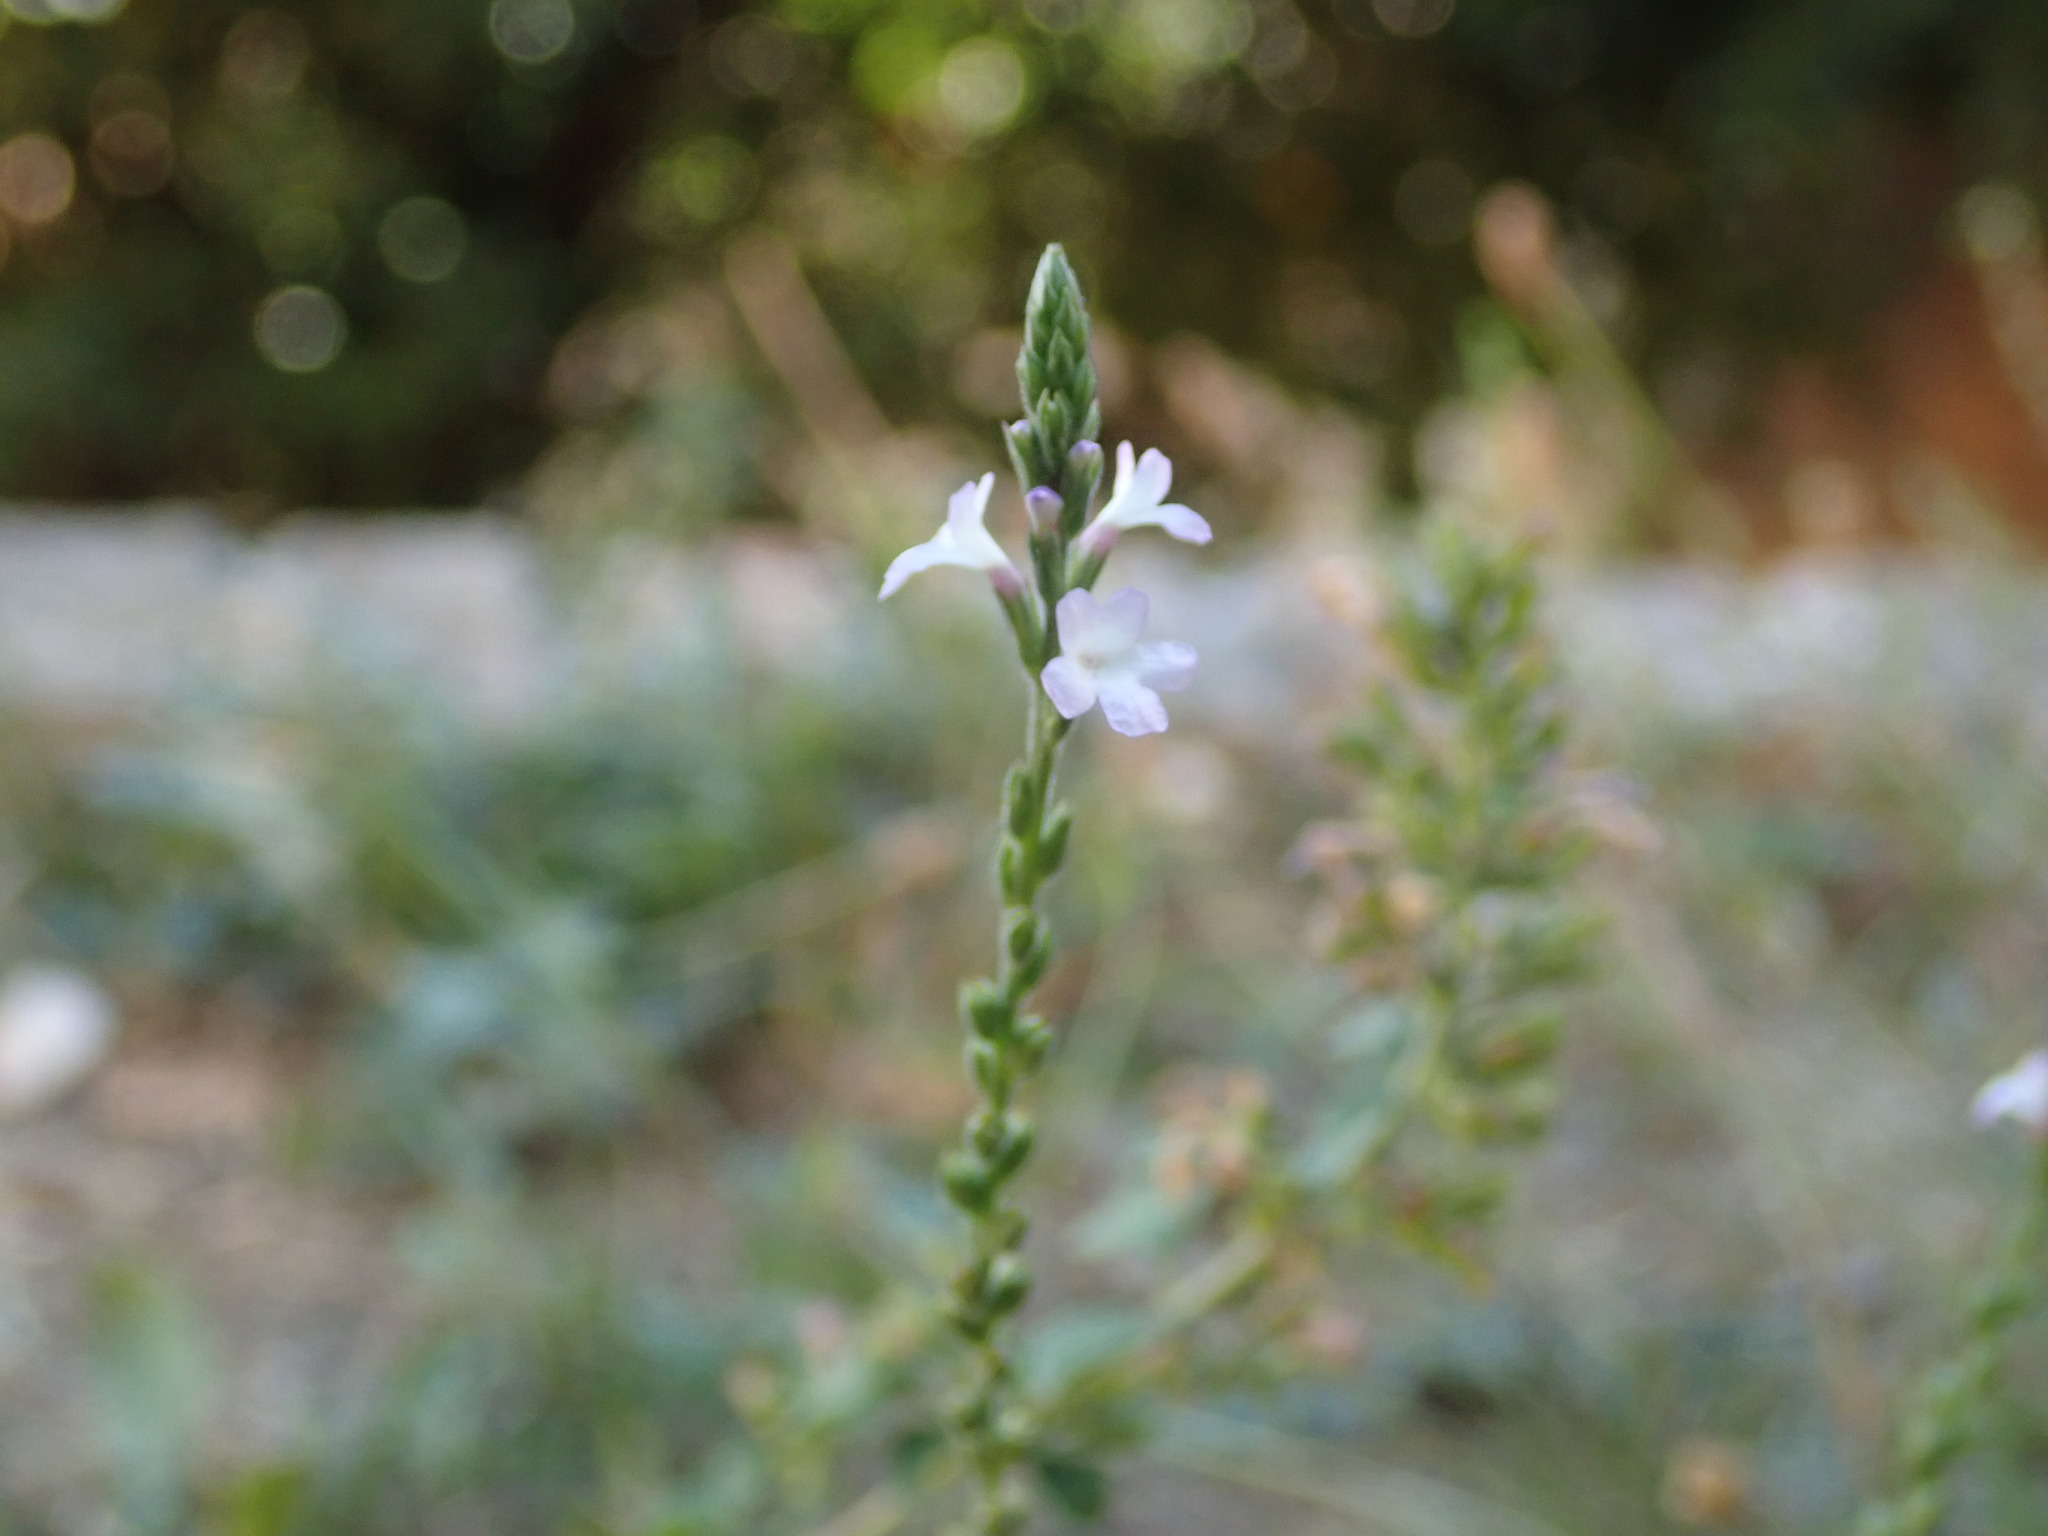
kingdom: Plantae
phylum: Tracheophyta
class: Magnoliopsida
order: Lamiales
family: Verbenaceae
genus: Verbena
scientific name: Verbena officinalis
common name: Vervain
